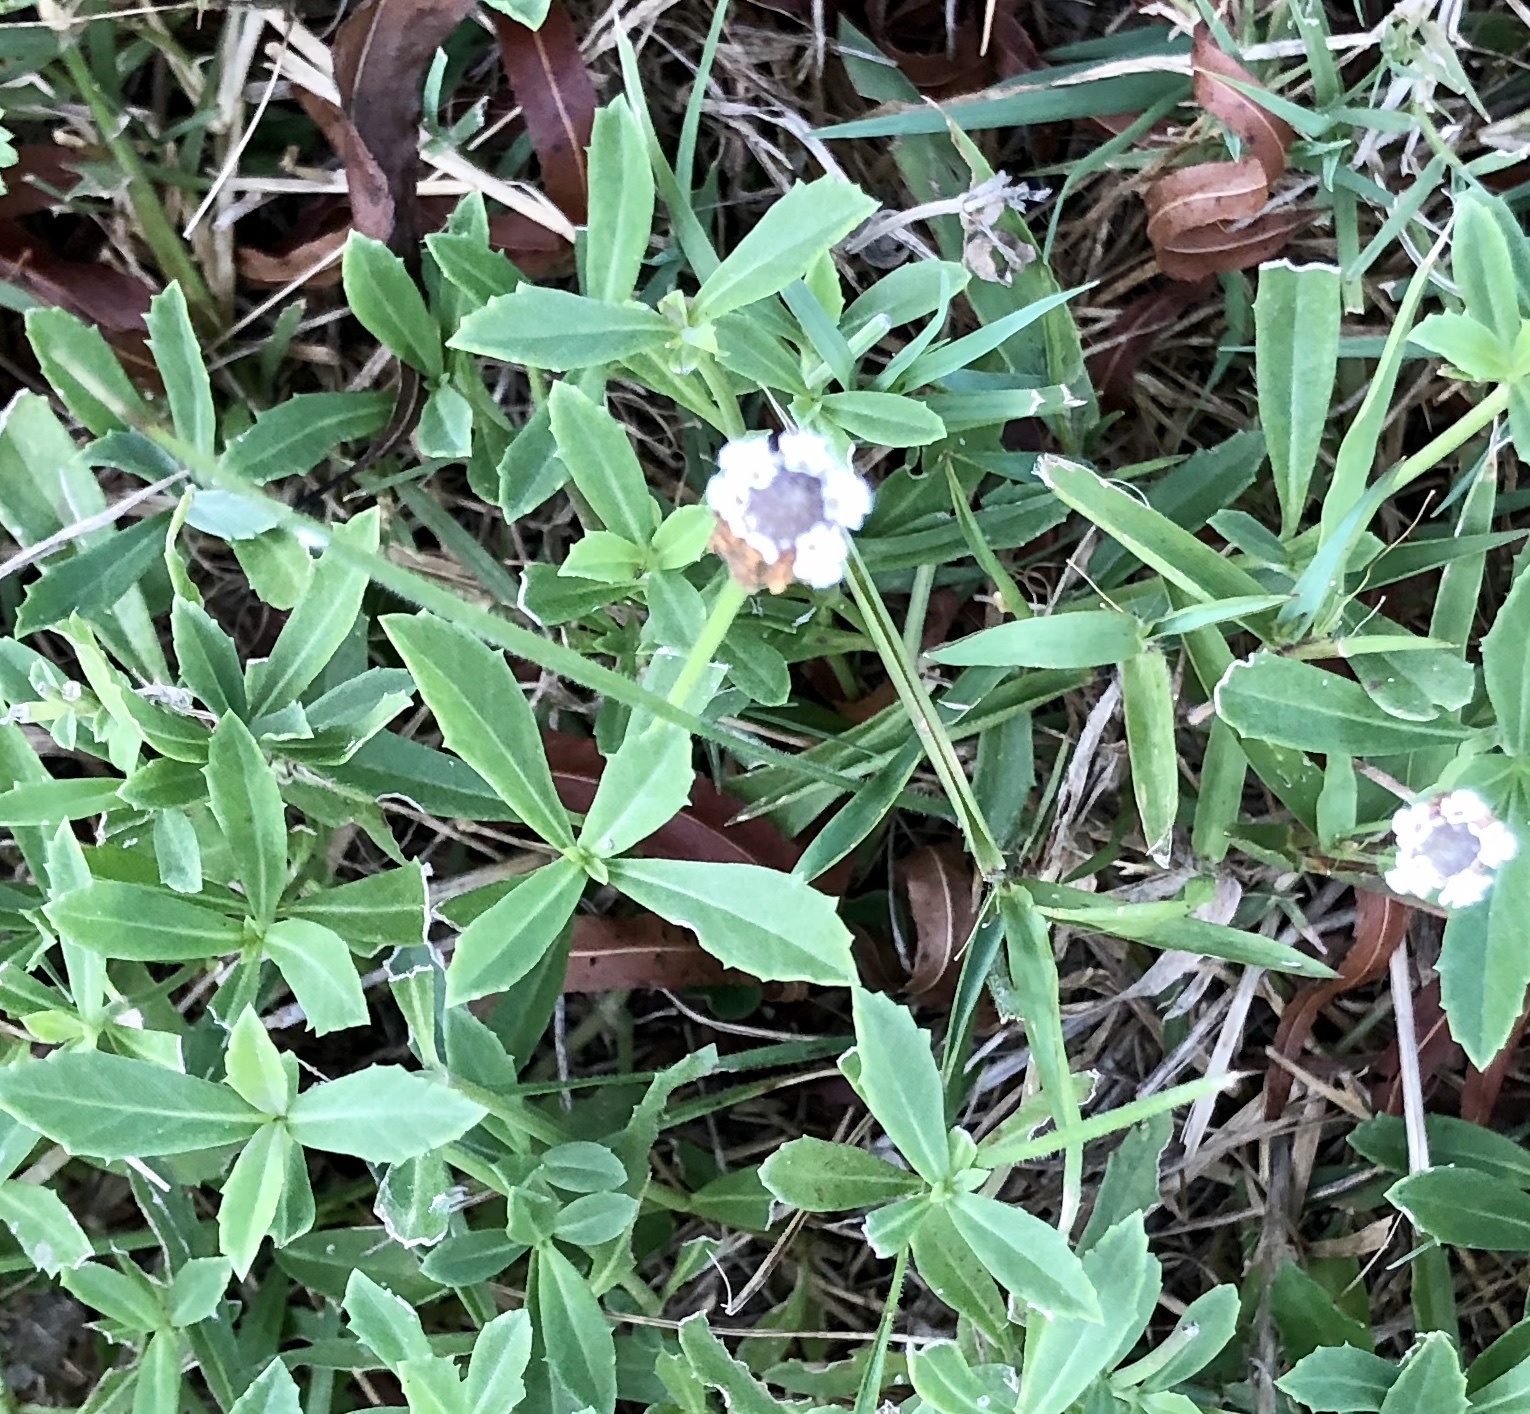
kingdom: Plantae
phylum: Tracheophyta
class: Magnoliopsida
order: Lamiales
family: Verbenaceae
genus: Phyla
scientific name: Phyla nodiflora
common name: Frogfruit
